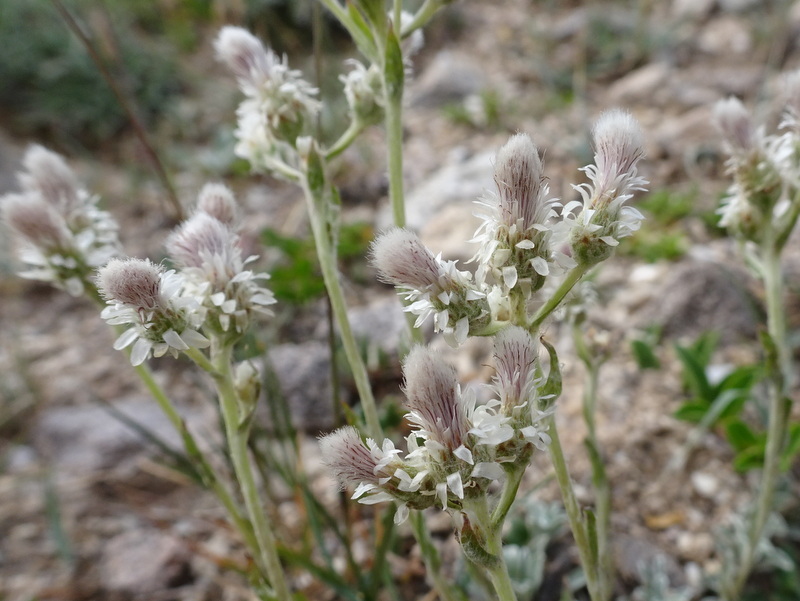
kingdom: Plantae
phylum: Tracheophyta
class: Magnoliopsida
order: Asterales
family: Asteraceae
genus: Antennaria
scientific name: Antennaria dioica
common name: Mountain everlasting
